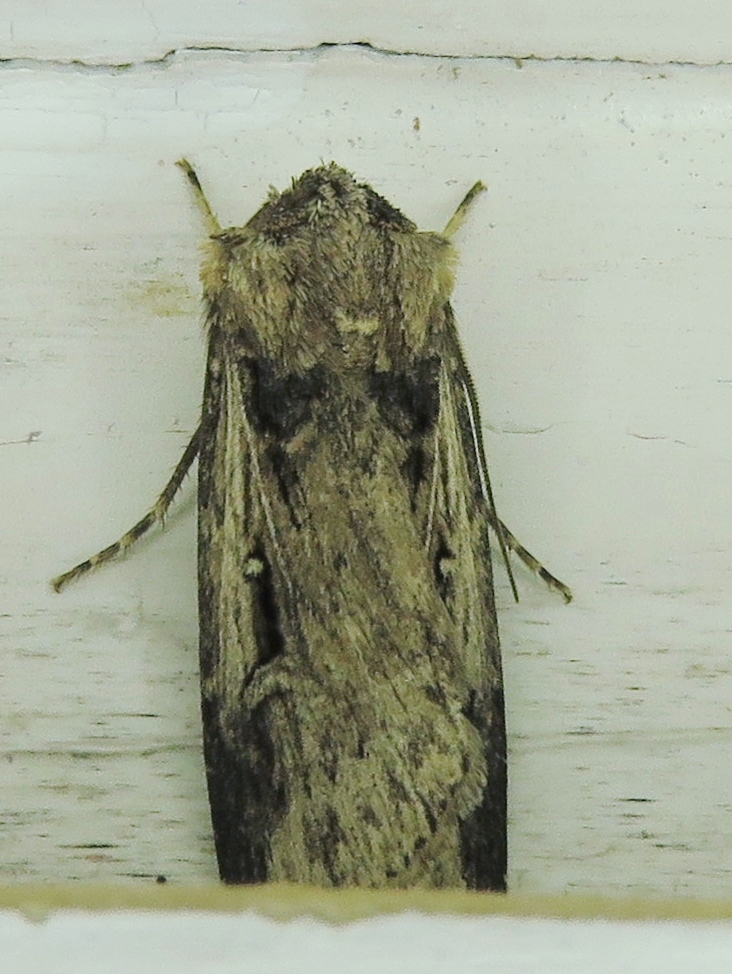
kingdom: Animalia
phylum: Arthropoda
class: Insecta
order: Lepidoptera
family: Noctuidae
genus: Feltia
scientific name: Feltia subterranea
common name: Granulate cutworm
